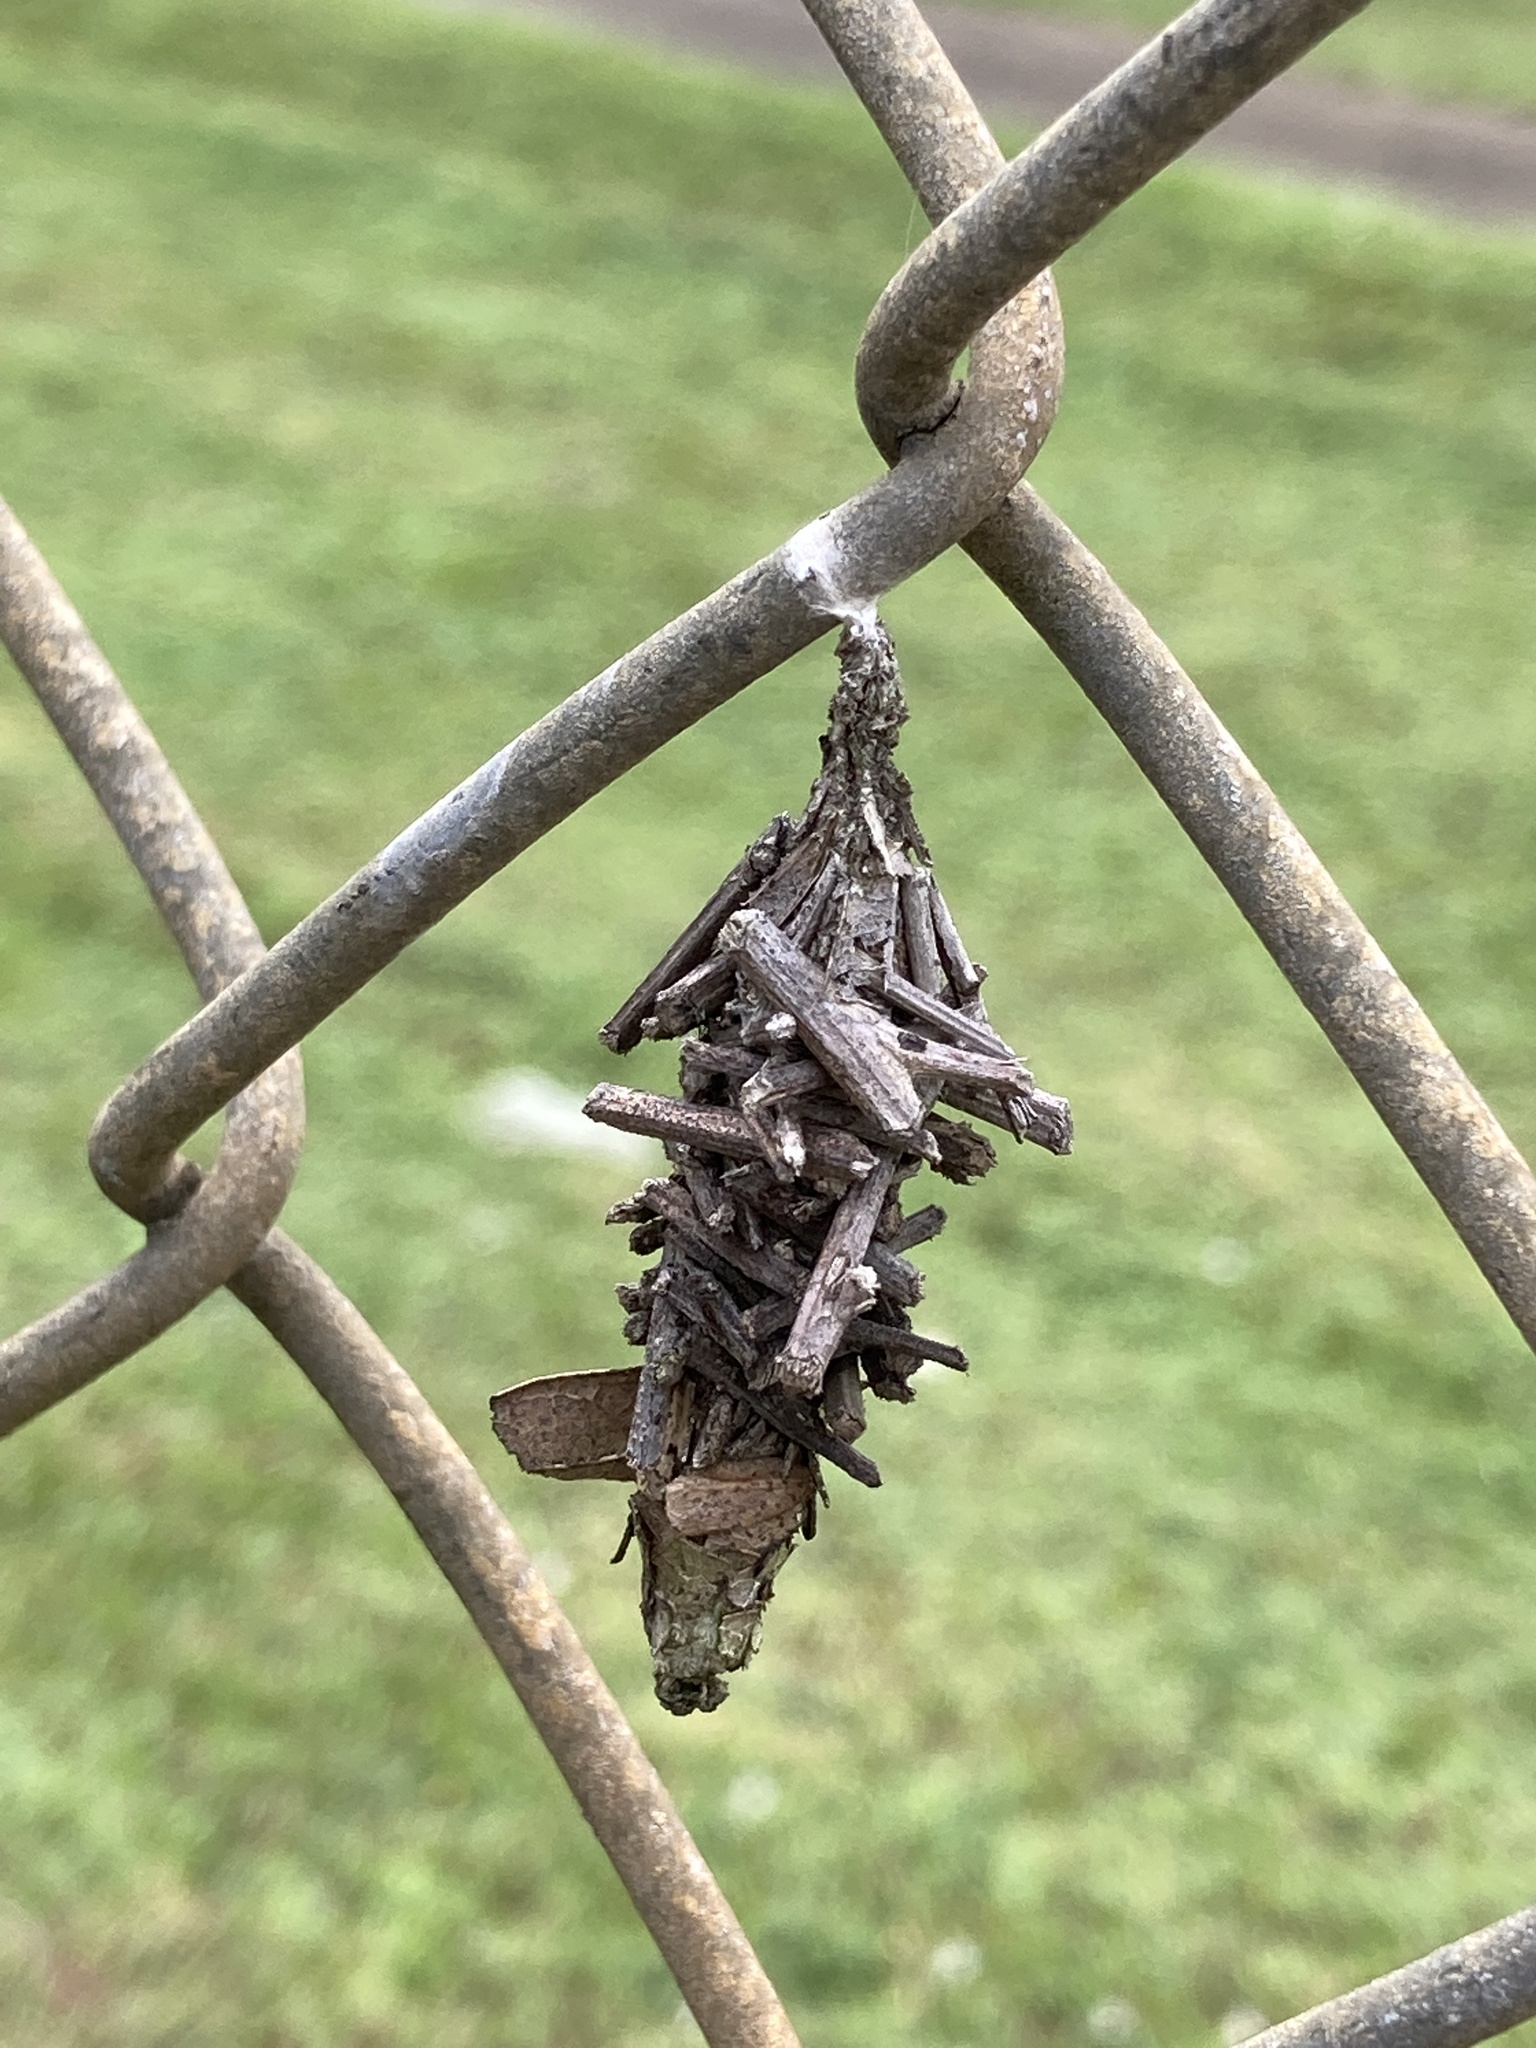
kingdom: Animalia
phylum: Arthropoda
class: Insecta
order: Lepidoptera
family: Psychidae
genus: Oiketicus
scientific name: Oiketicus
